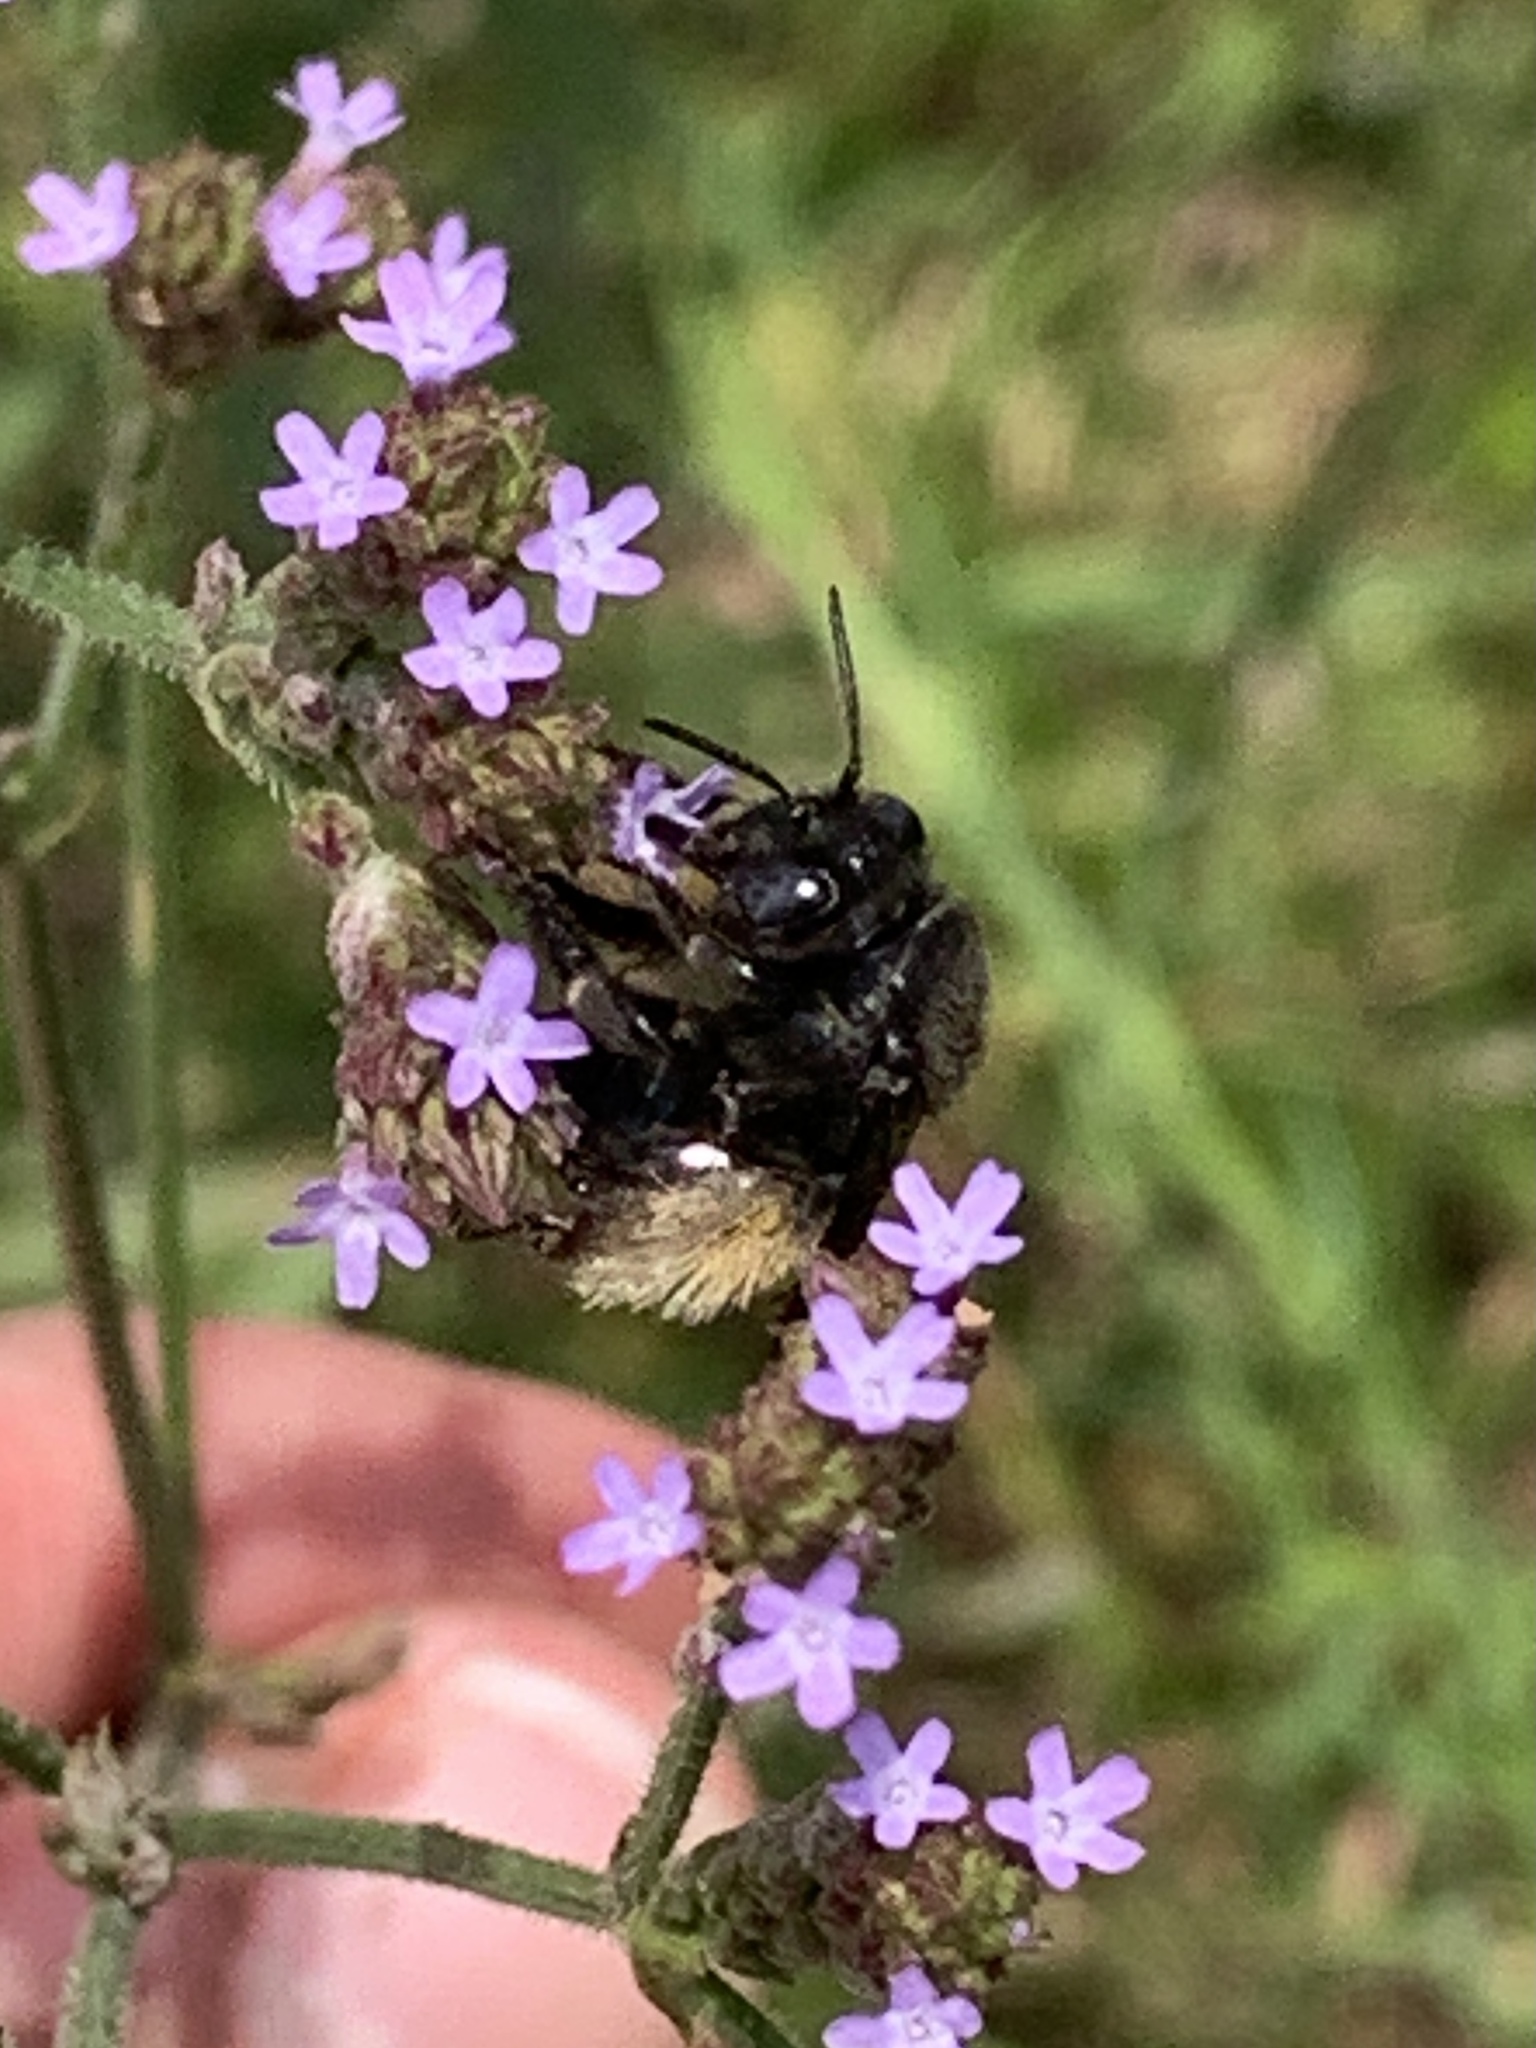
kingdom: Animalia
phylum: Arthropoda
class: Insecta
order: Hymenoptera
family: Apidae
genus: Melissodes
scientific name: Melissodes bimaculatus
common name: Two-spotted long-horned bee
